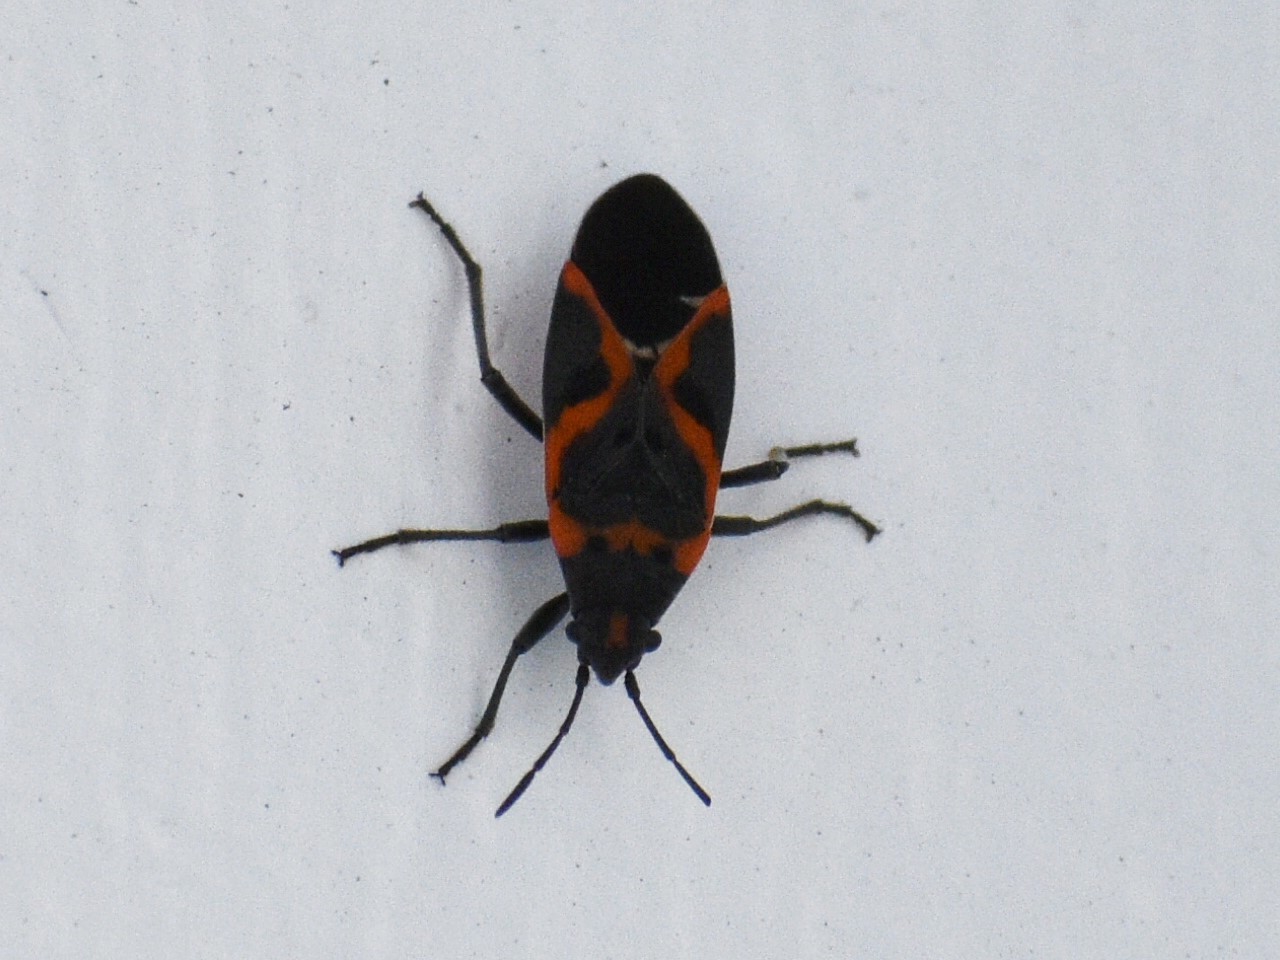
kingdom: Animalia
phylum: Arthropoda
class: Insecta
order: Hemiptera
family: Lygaeidae
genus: Lygaeus
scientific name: Lygaeus kalmii
